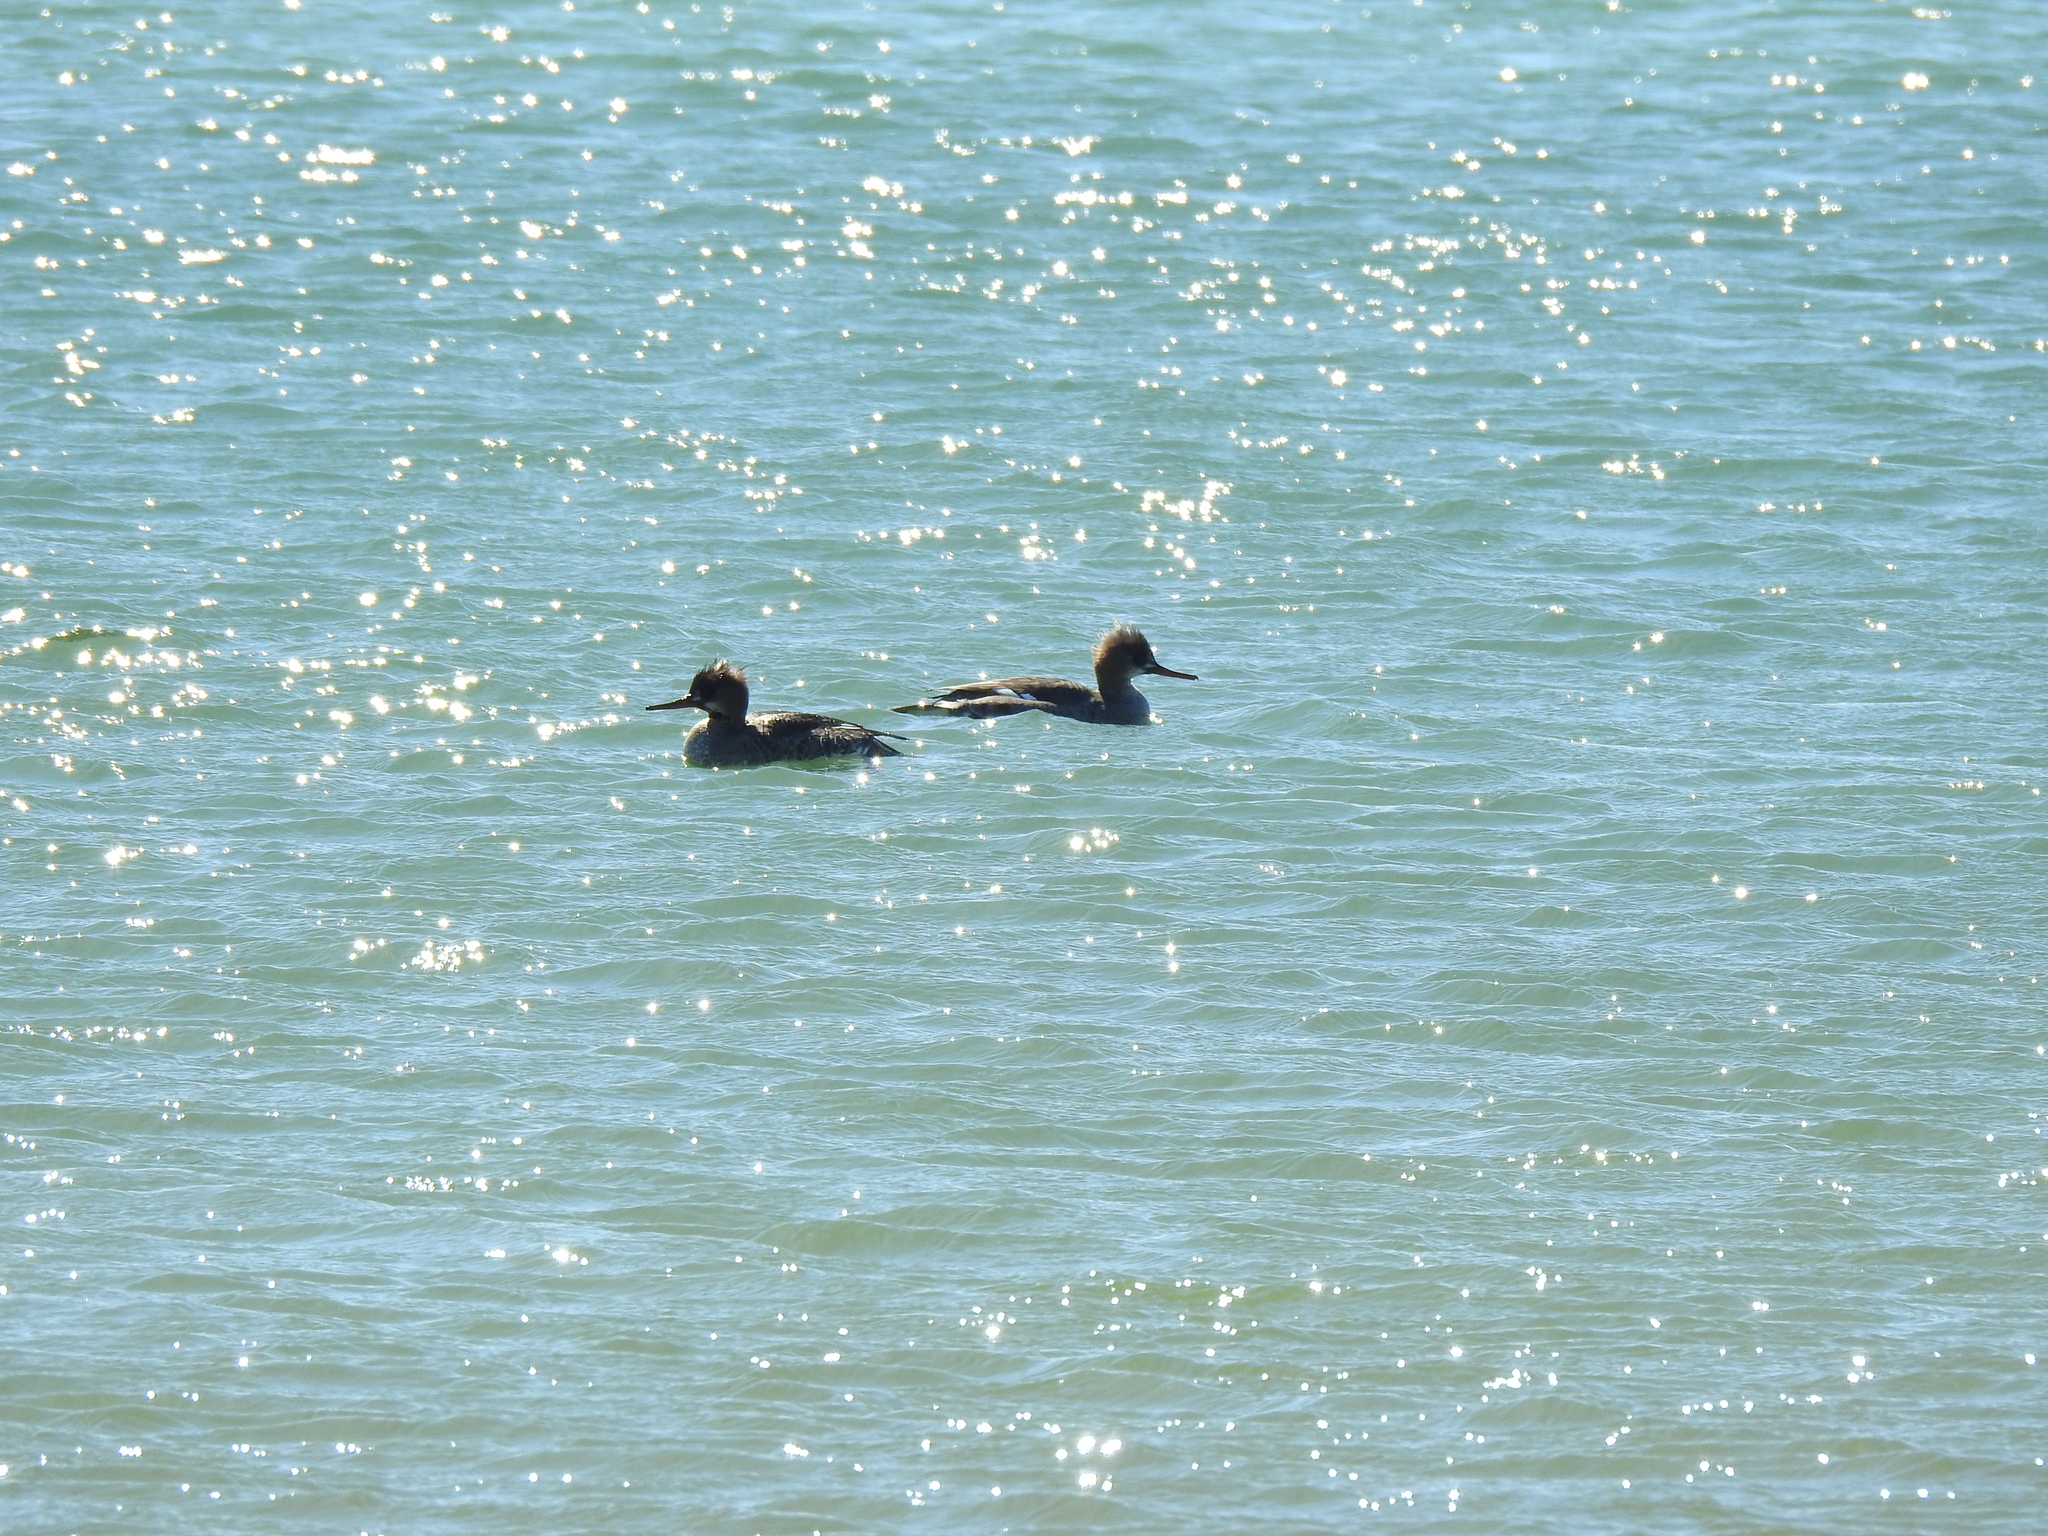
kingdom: Animalia
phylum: Chordata
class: Aves
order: Anseriformes
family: Anatidae
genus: Mergus
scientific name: Mergus serrator
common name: Red-breasted merganser
